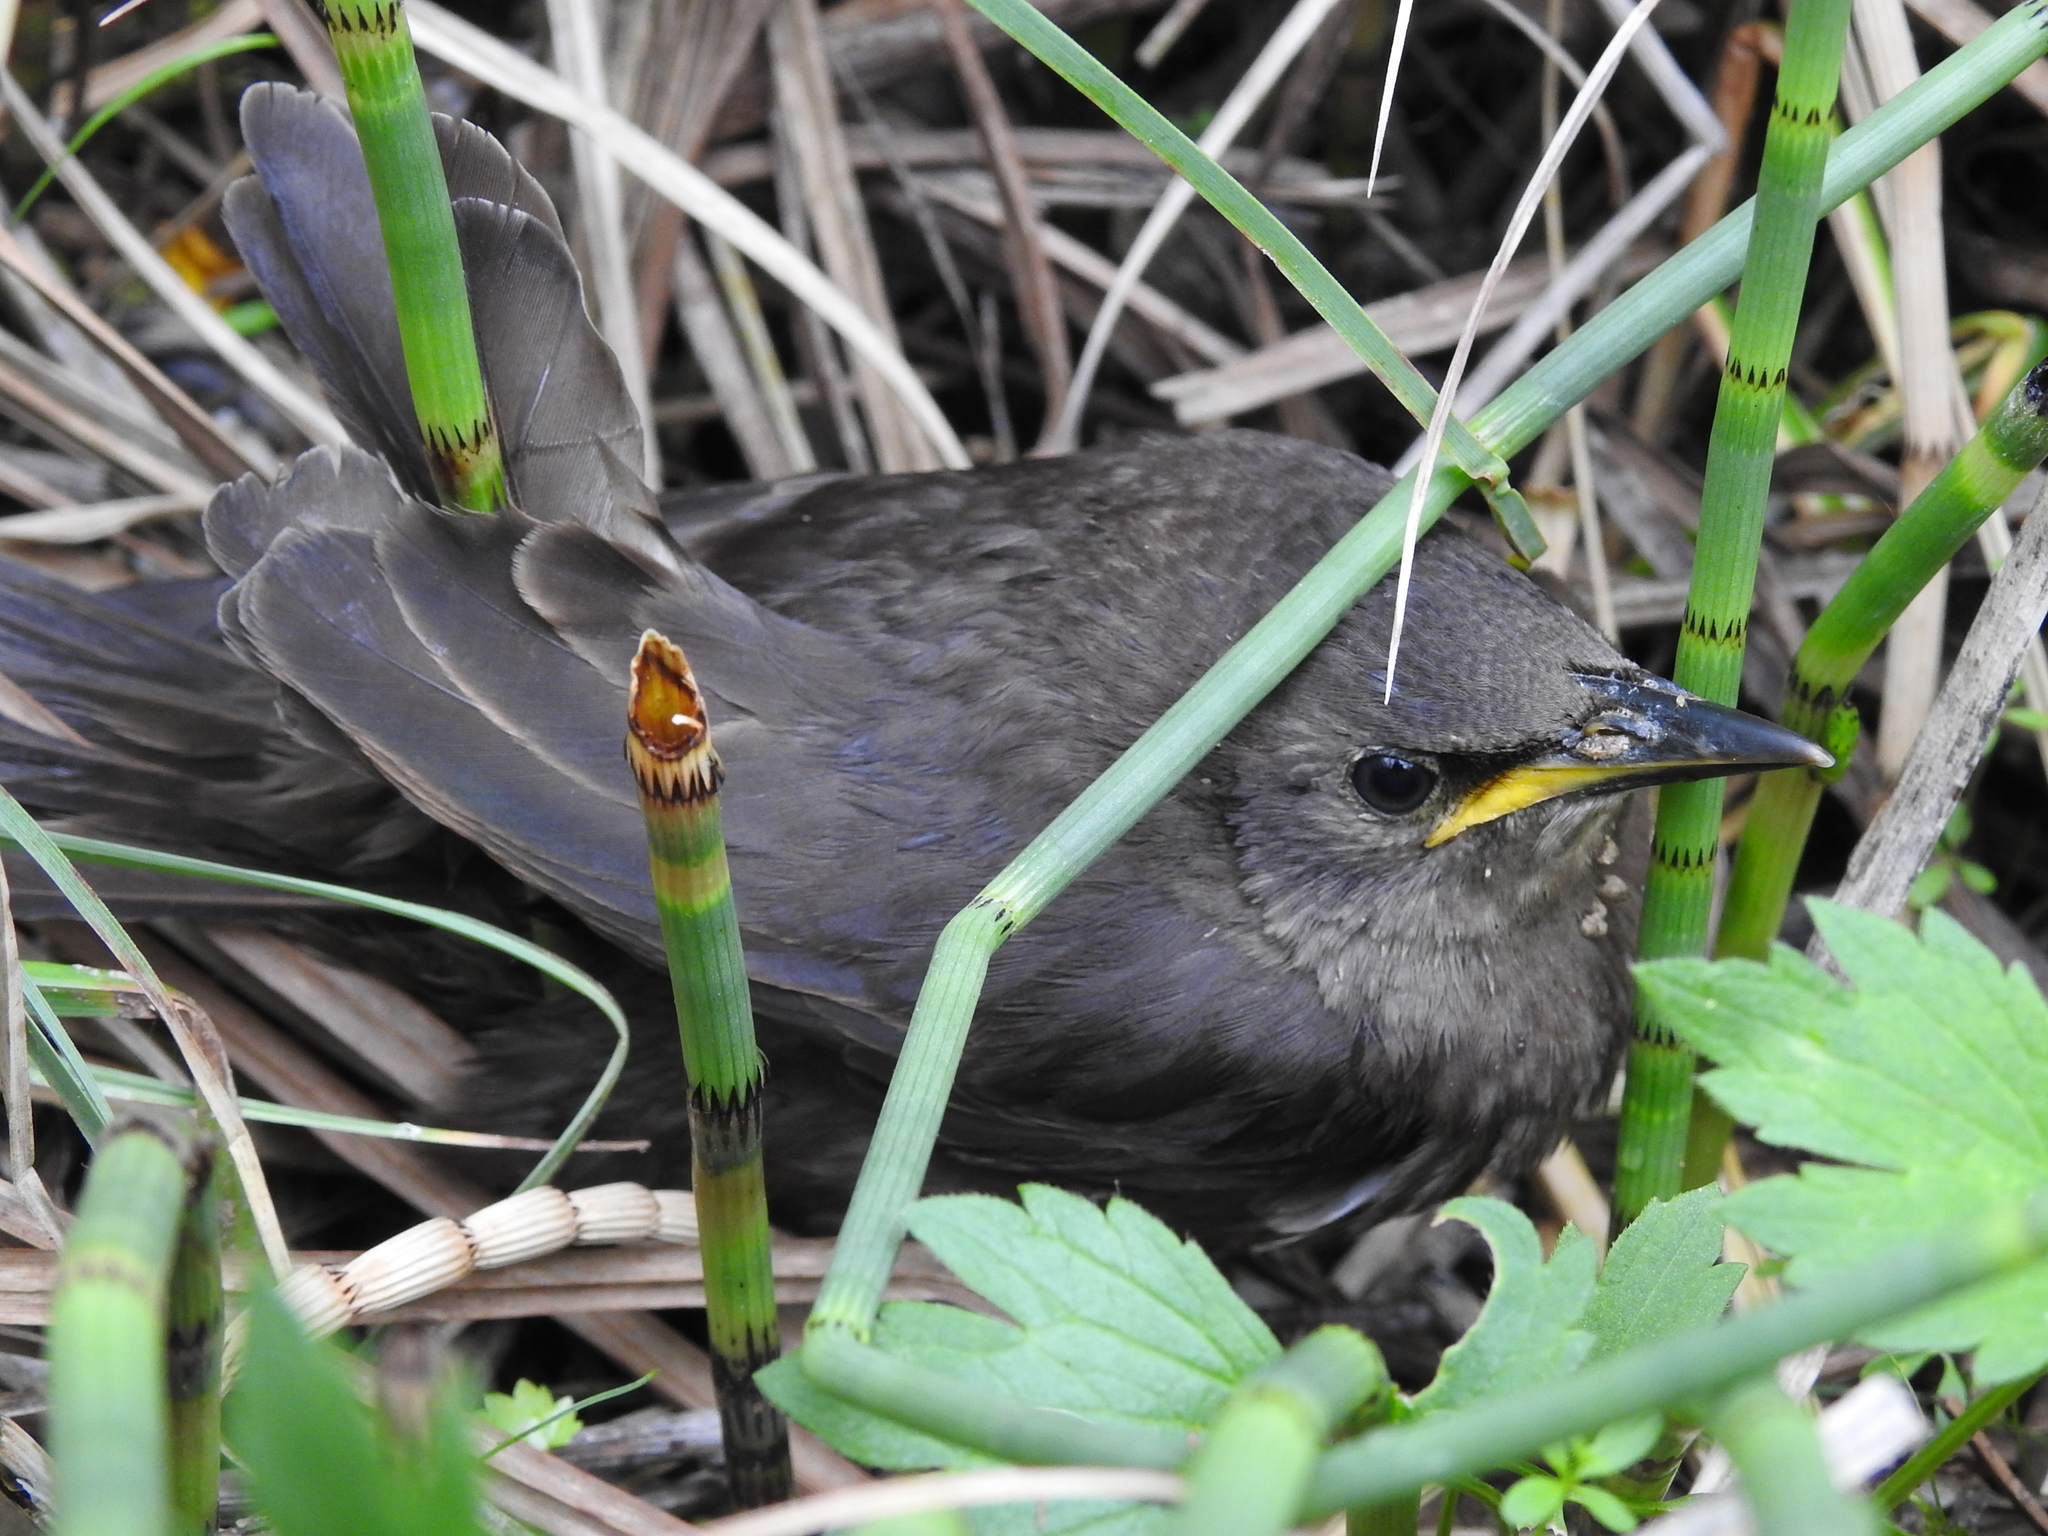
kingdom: Animalia
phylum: Chordata
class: Aves
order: Passeriformes
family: Sturnidae
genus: Sturnus
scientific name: Sturnus vulgaris
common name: Common starling
